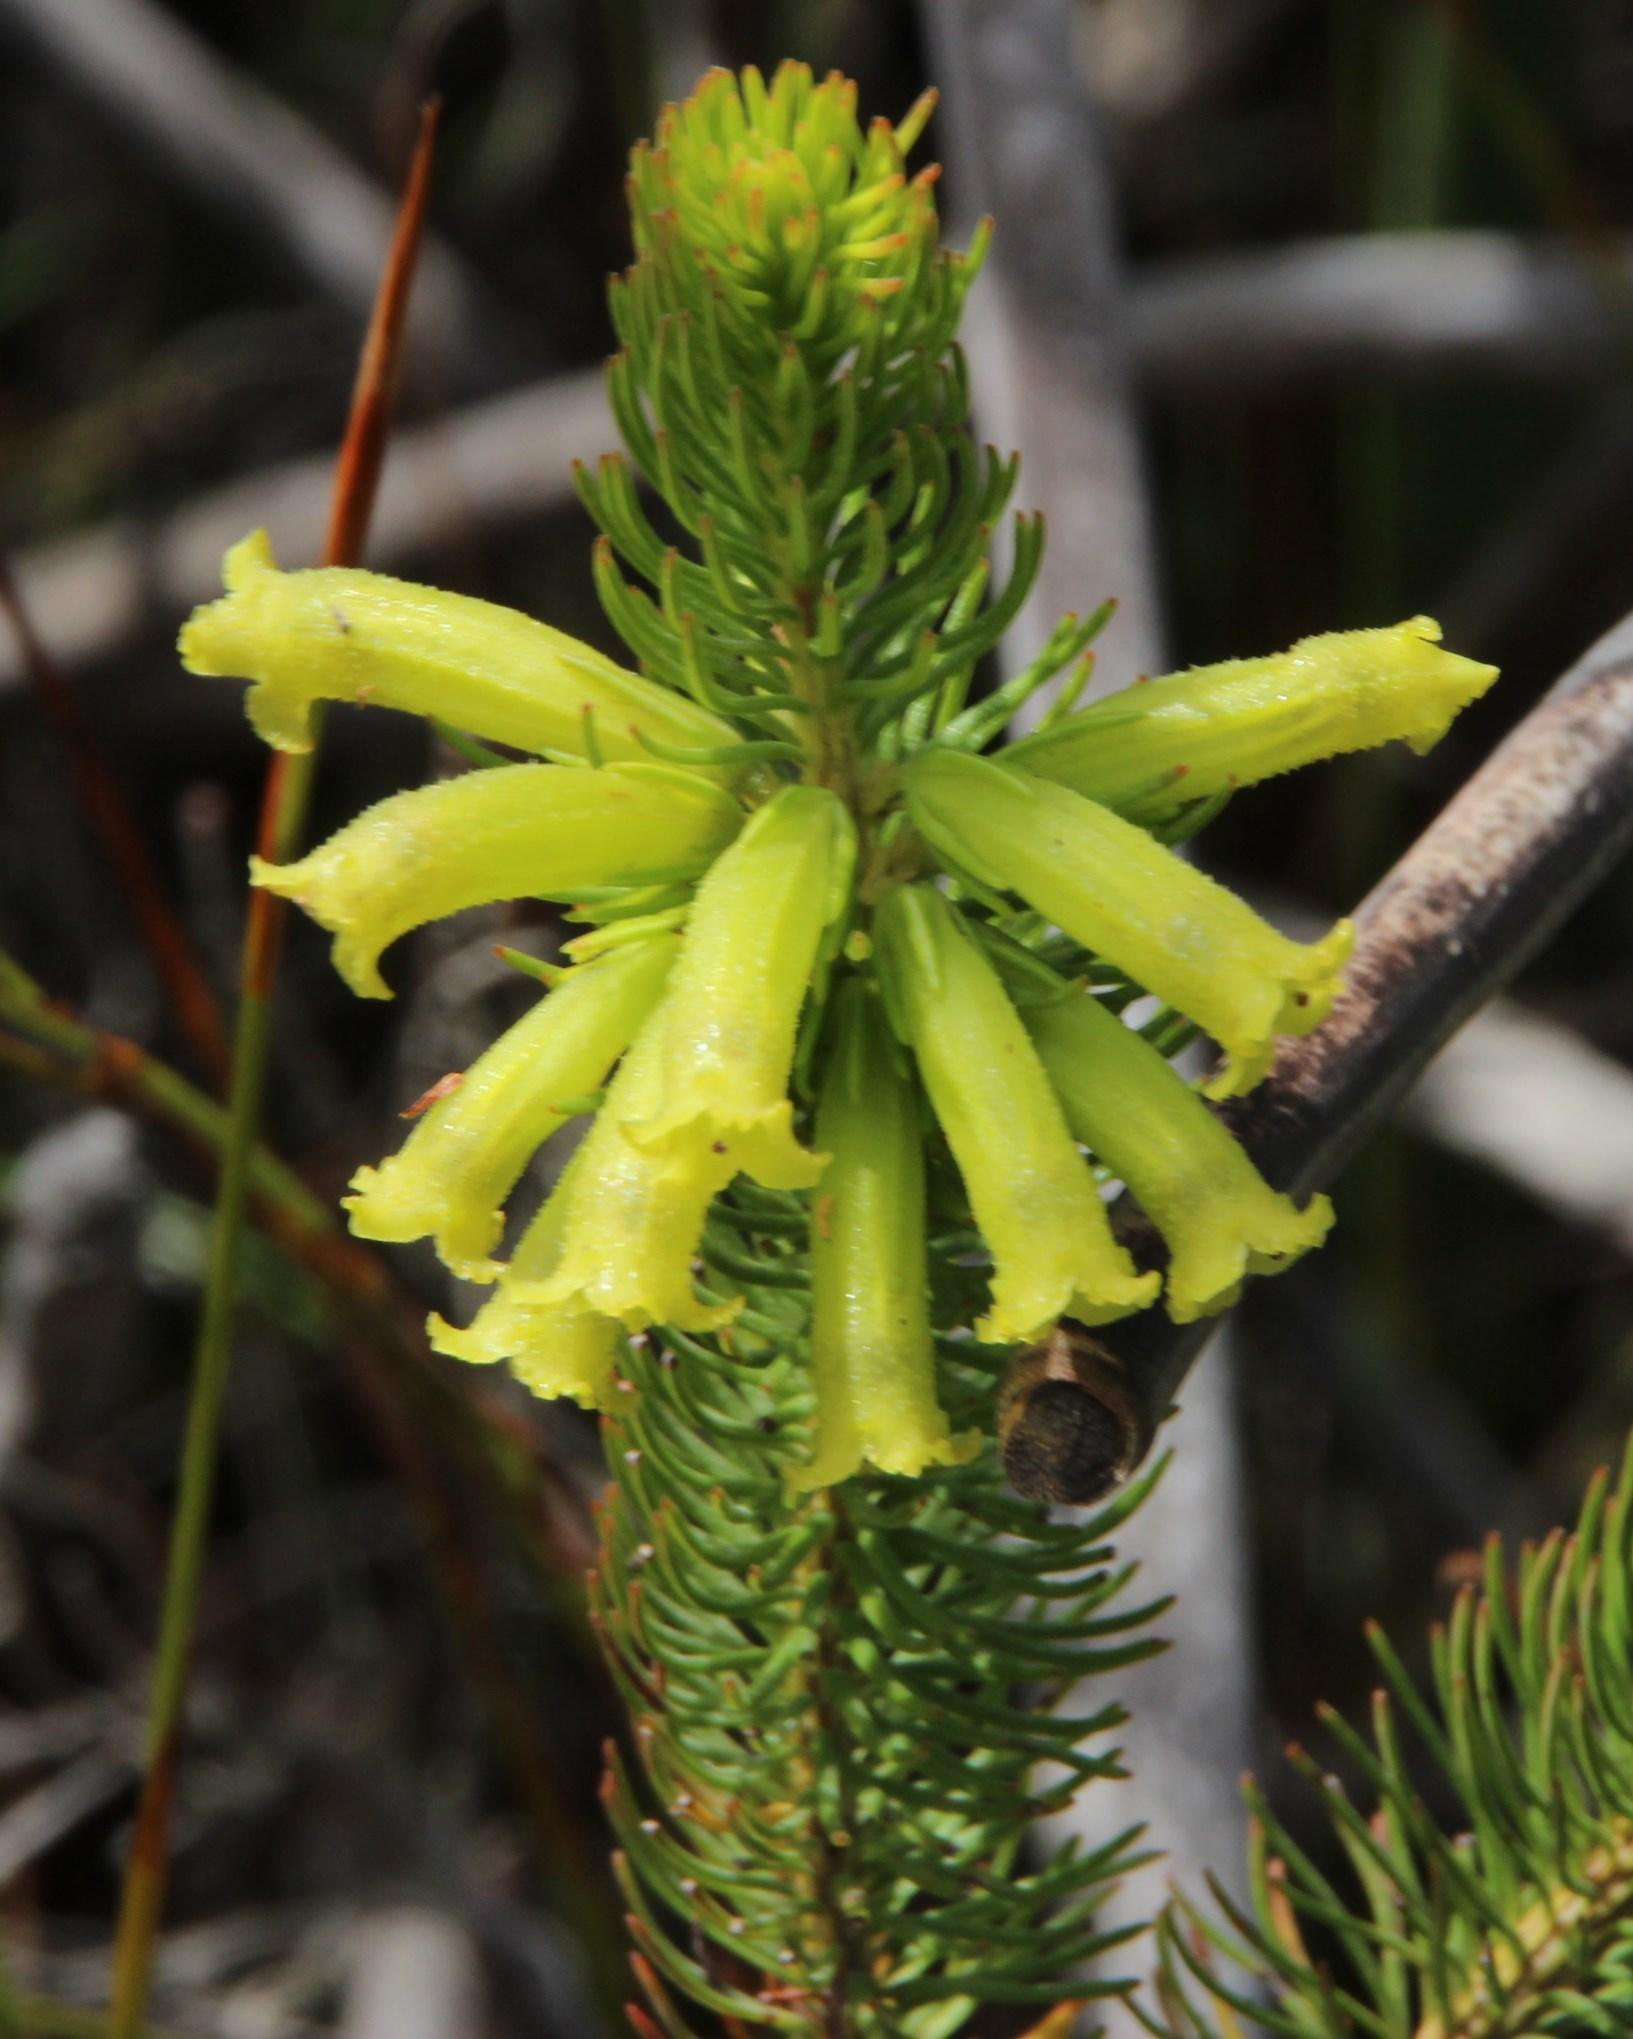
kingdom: Plantae
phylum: Tracheophyta
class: Magnoliopsida
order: Ericales
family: Ericaceae
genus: Erica
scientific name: Erica viscaria
